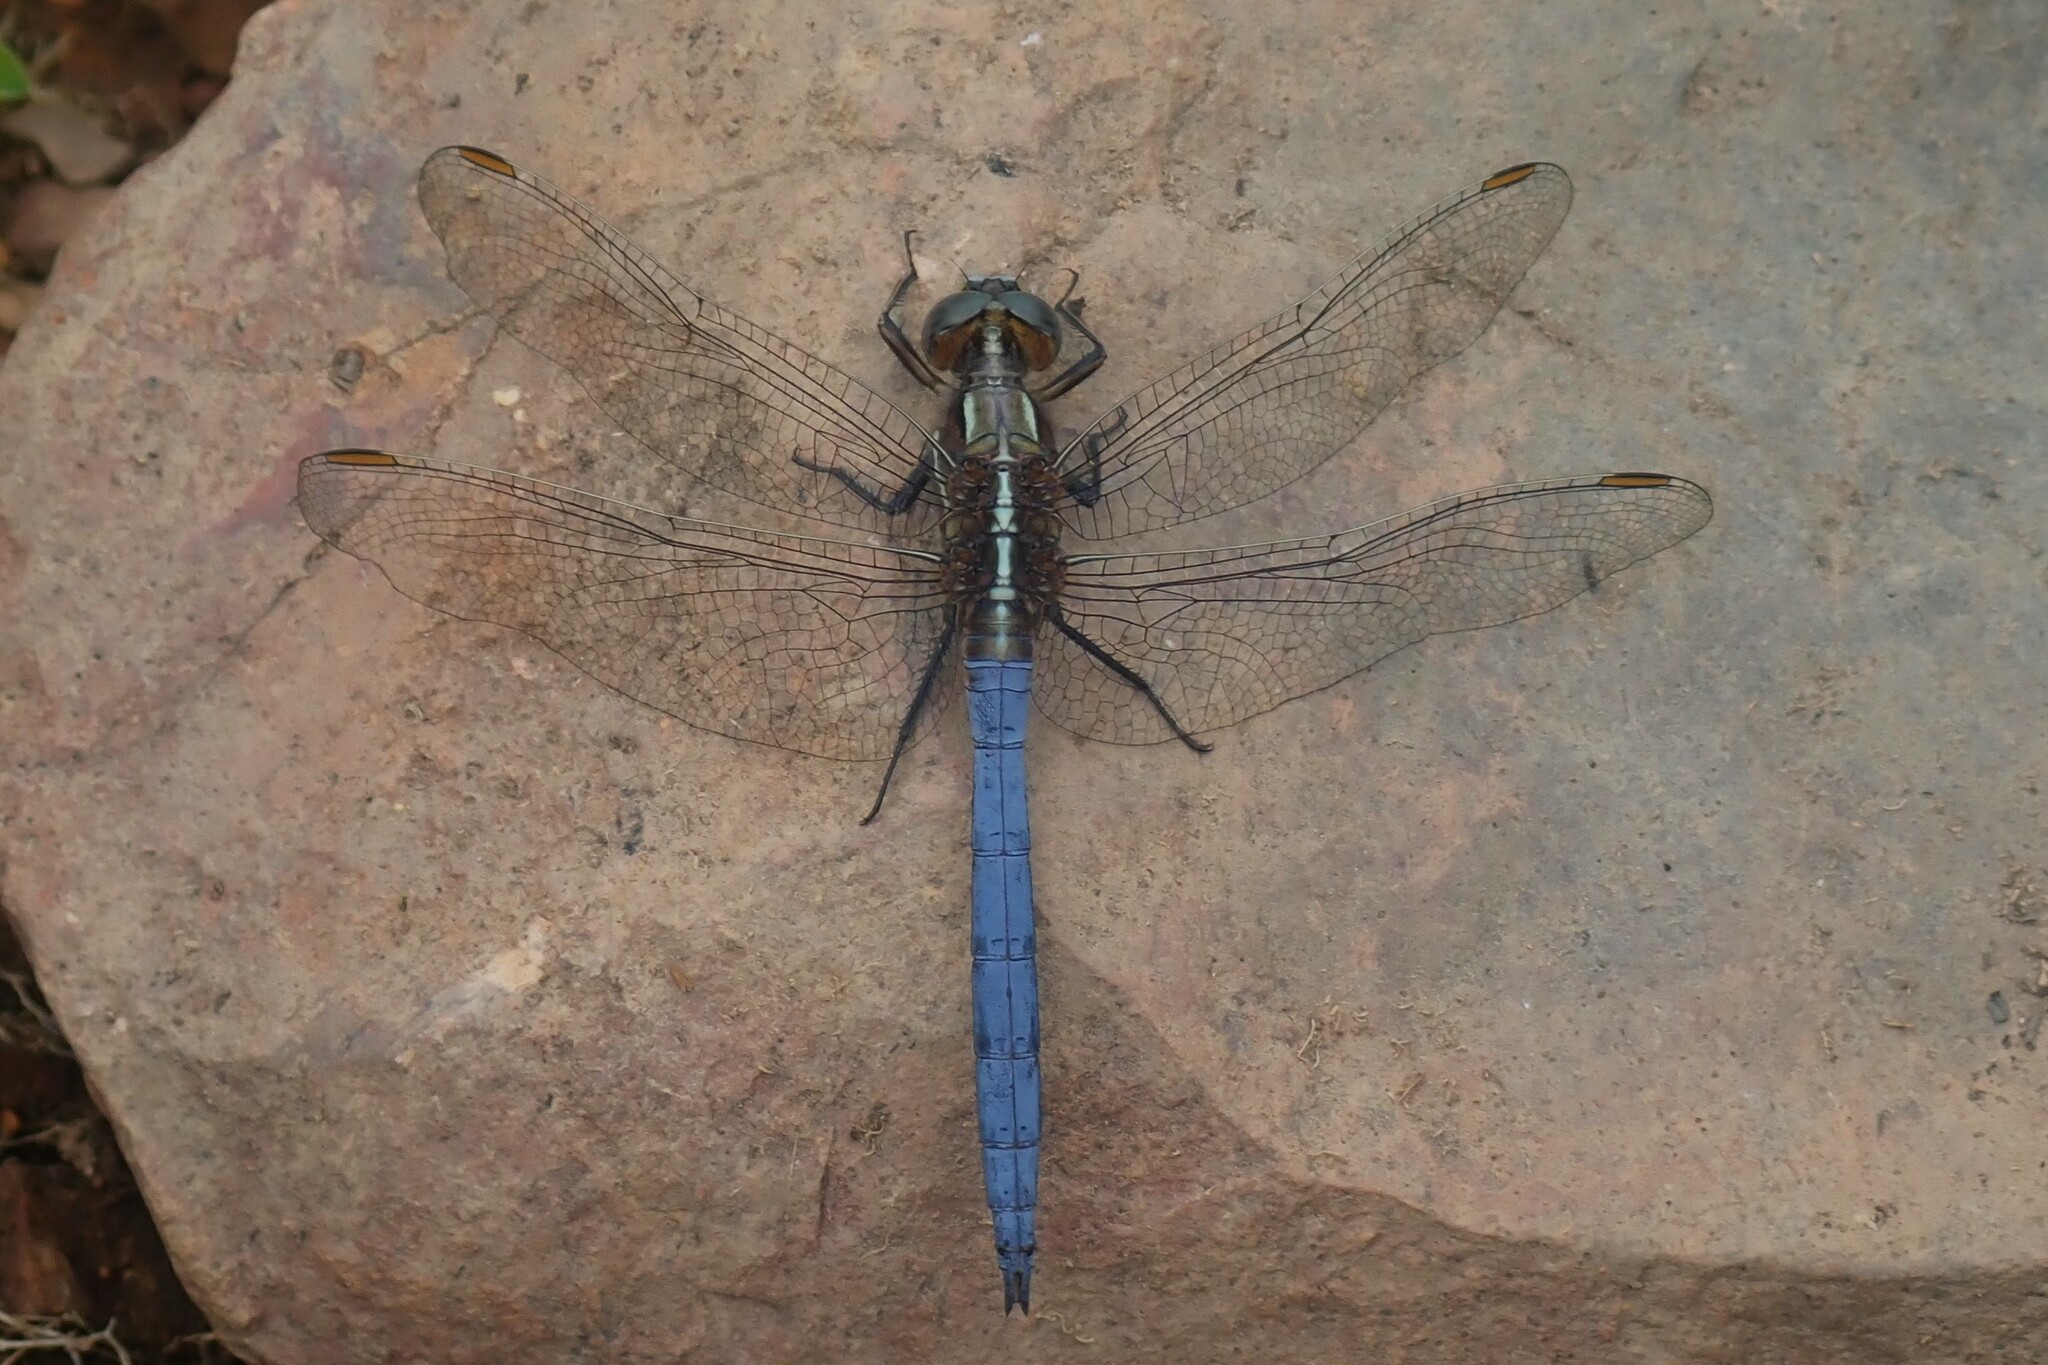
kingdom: Animalia
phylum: Arthropoda
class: Insecta
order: Odonata
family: Libellulidae
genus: Orthetrum
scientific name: Orthetrum caffrum
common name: Two-striped skimmer
